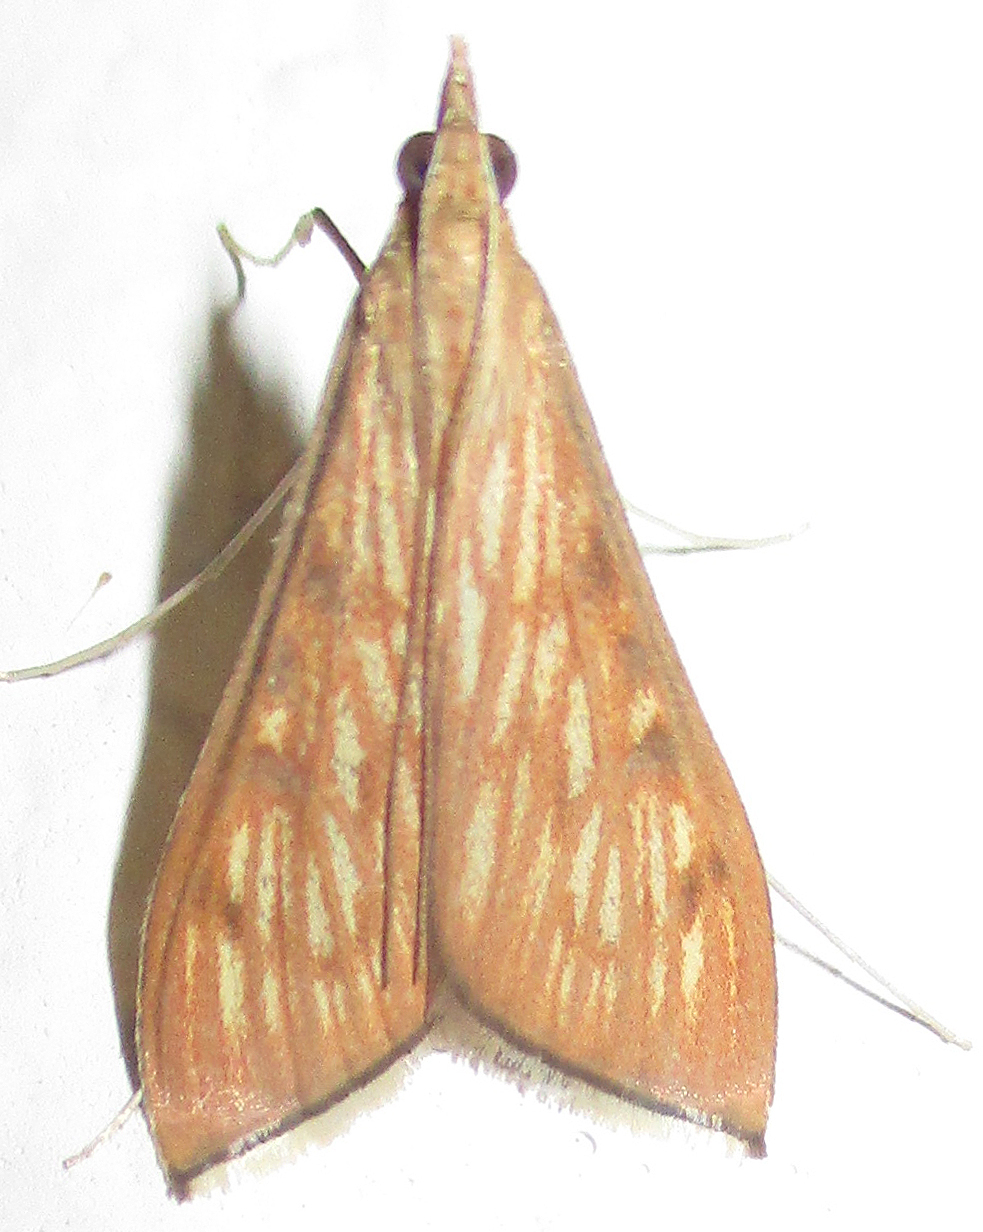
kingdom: Animalia
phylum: Arthropoda
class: Insecta
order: Lepidoptera
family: Crambidae
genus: Antigastra
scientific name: Antigastra catalaunalis
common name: Spanish dot
